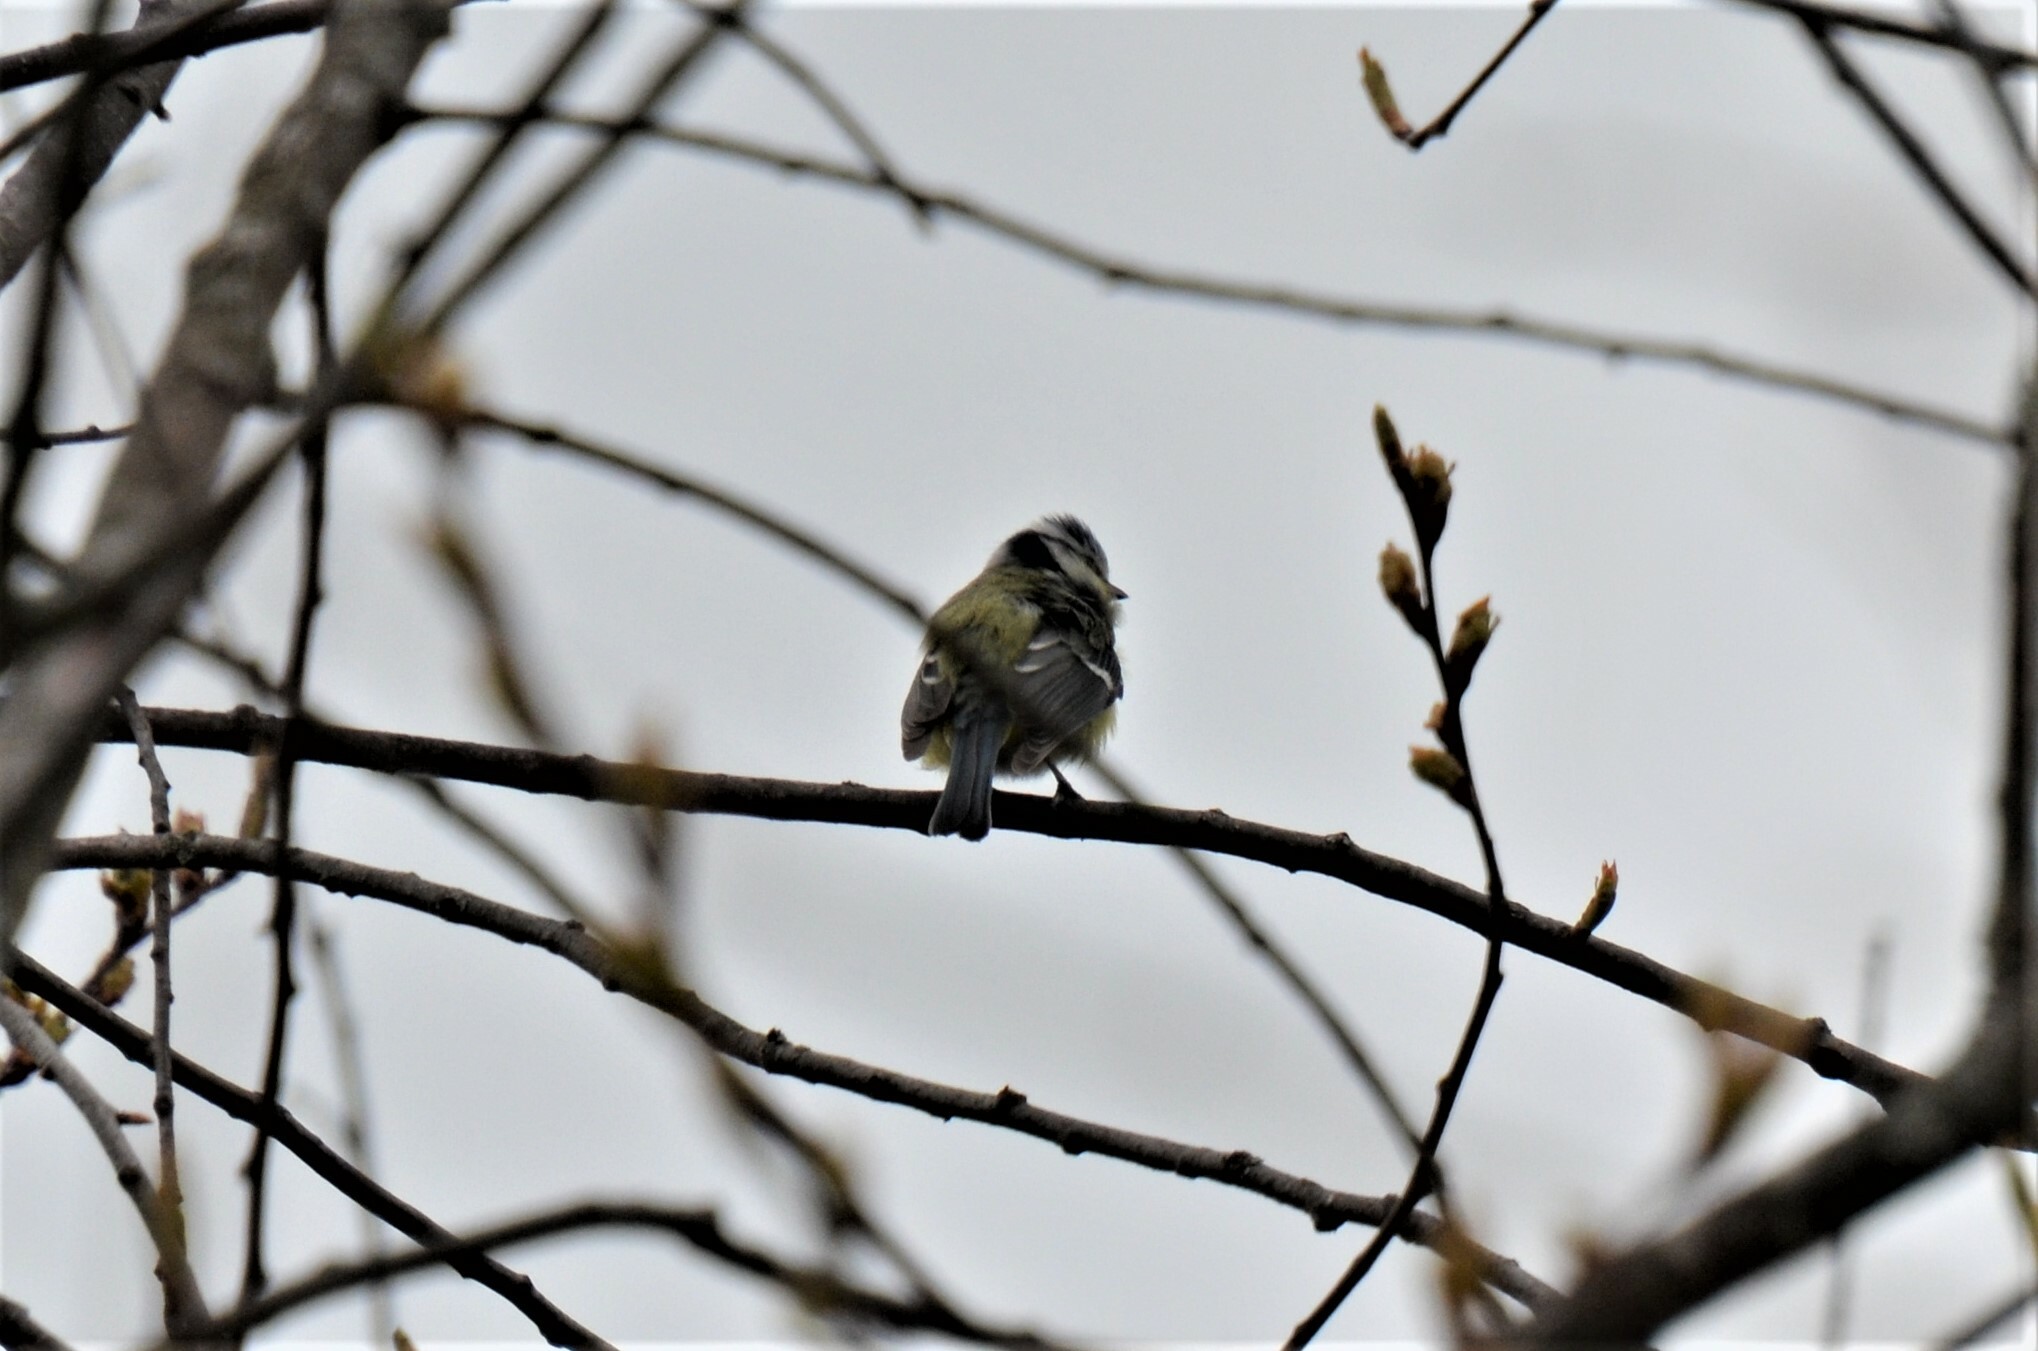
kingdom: Animalia
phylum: Chordata
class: Aves
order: Passeriformes
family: Paridae
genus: Cyanistes
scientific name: Cyanistes caeruleus
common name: Eurasian blue tit
